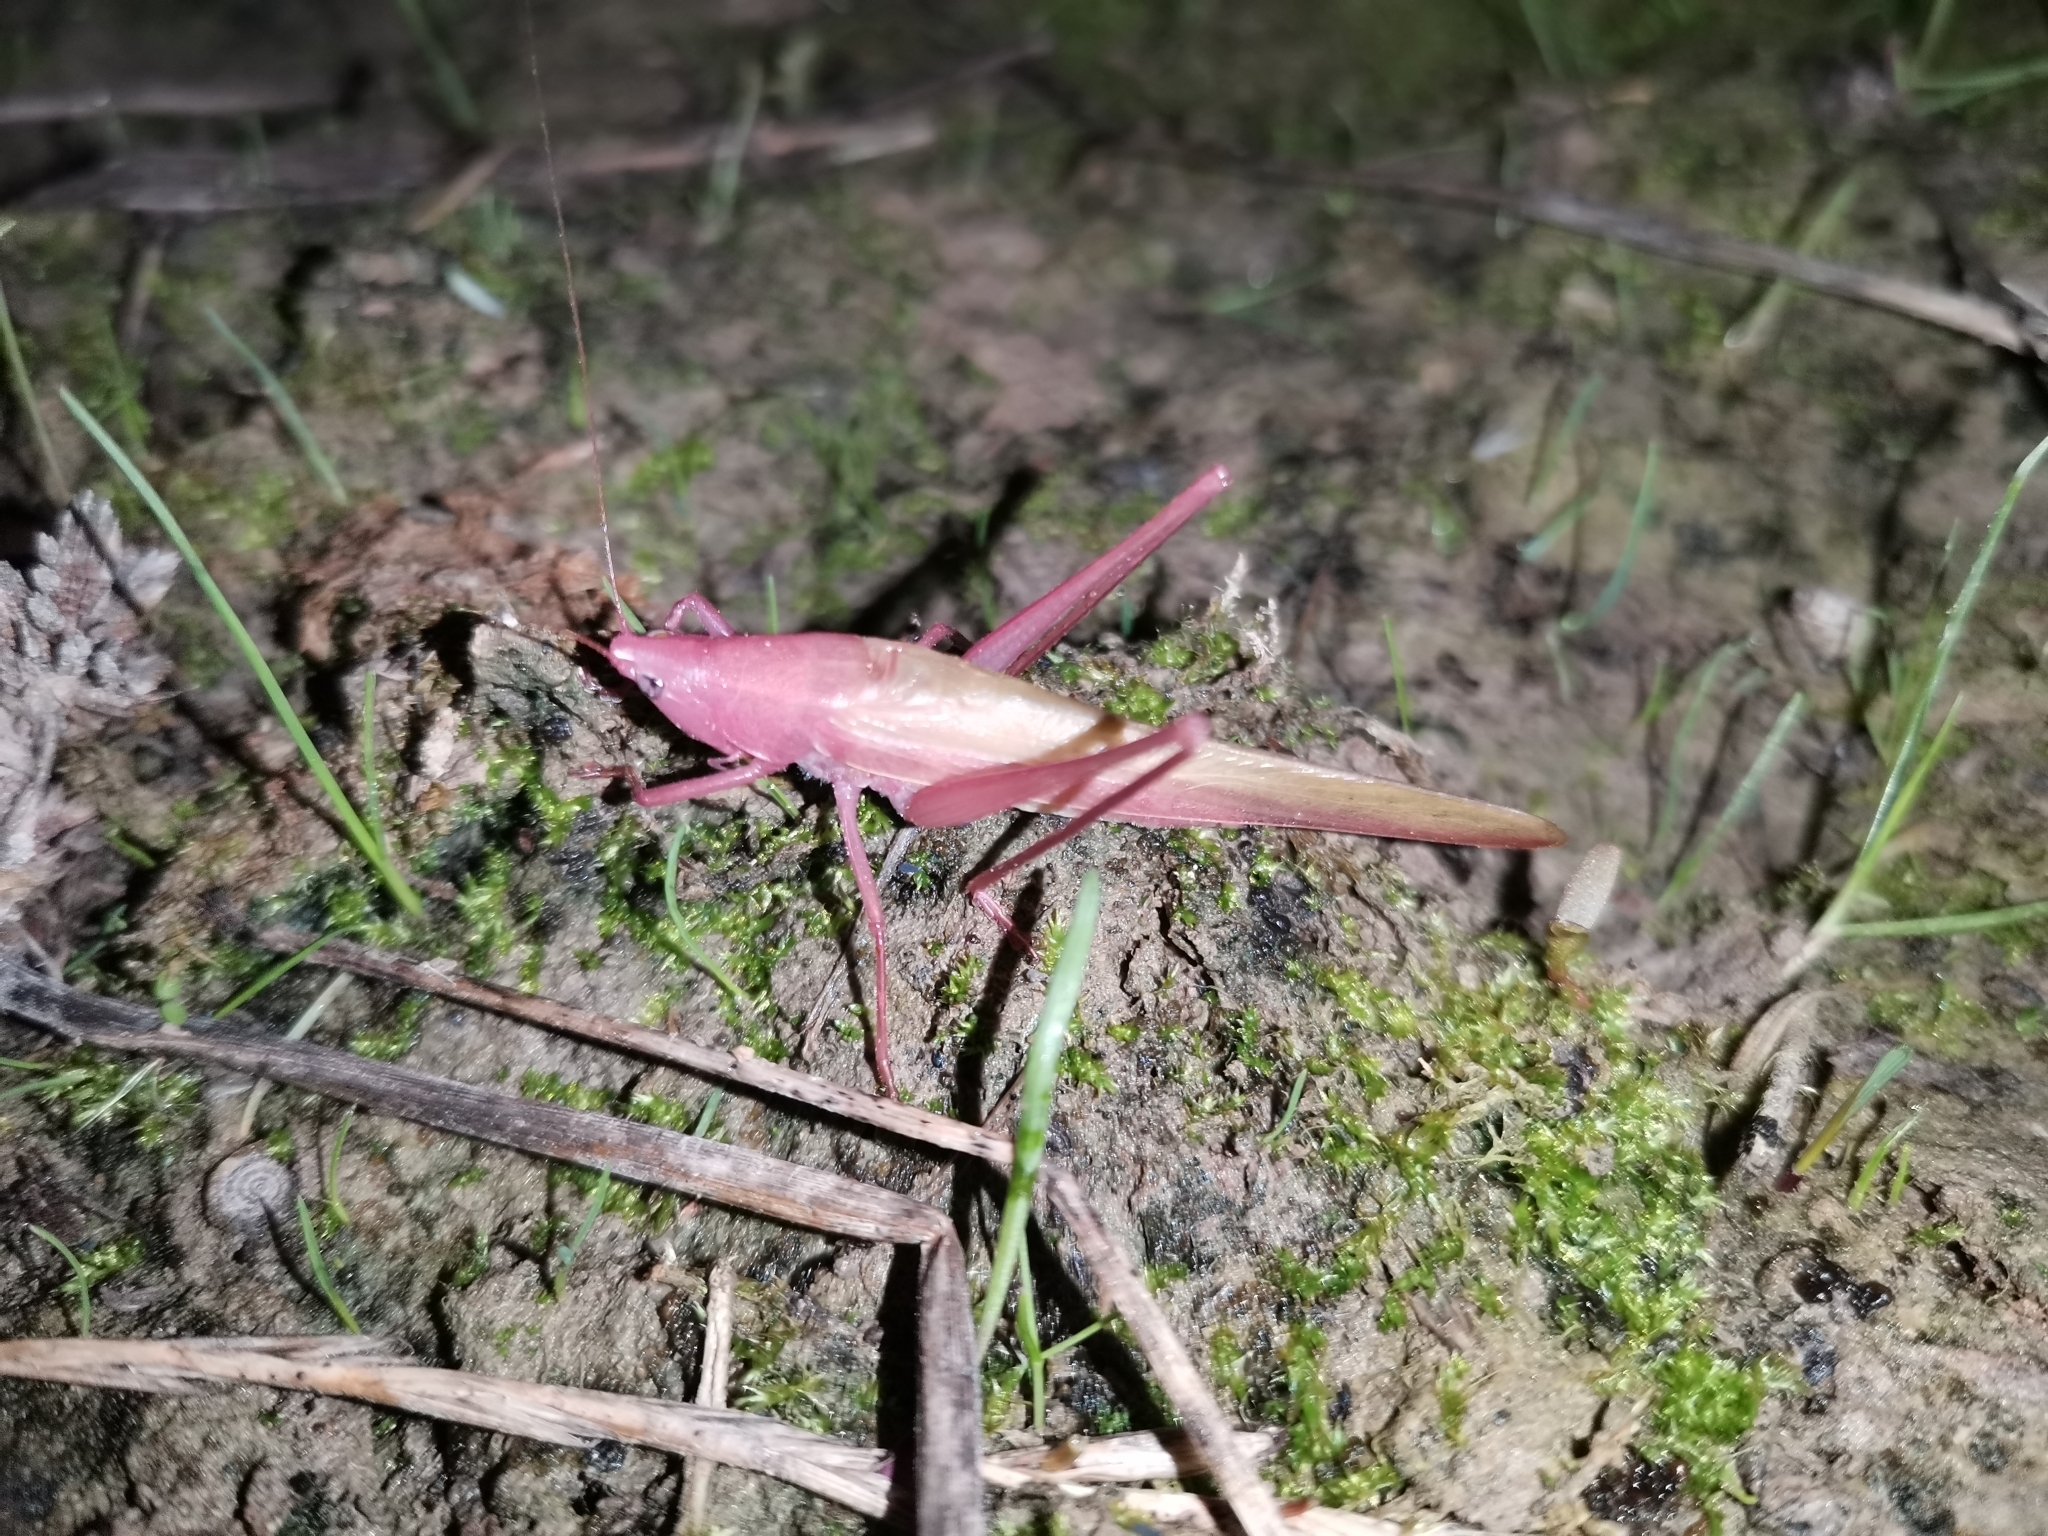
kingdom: Animalia
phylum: Arthropoda
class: Insecta
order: Orthoptera
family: Tettigoniidae
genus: Ruspolia
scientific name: Ruspolia nitidula
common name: Large conehead
